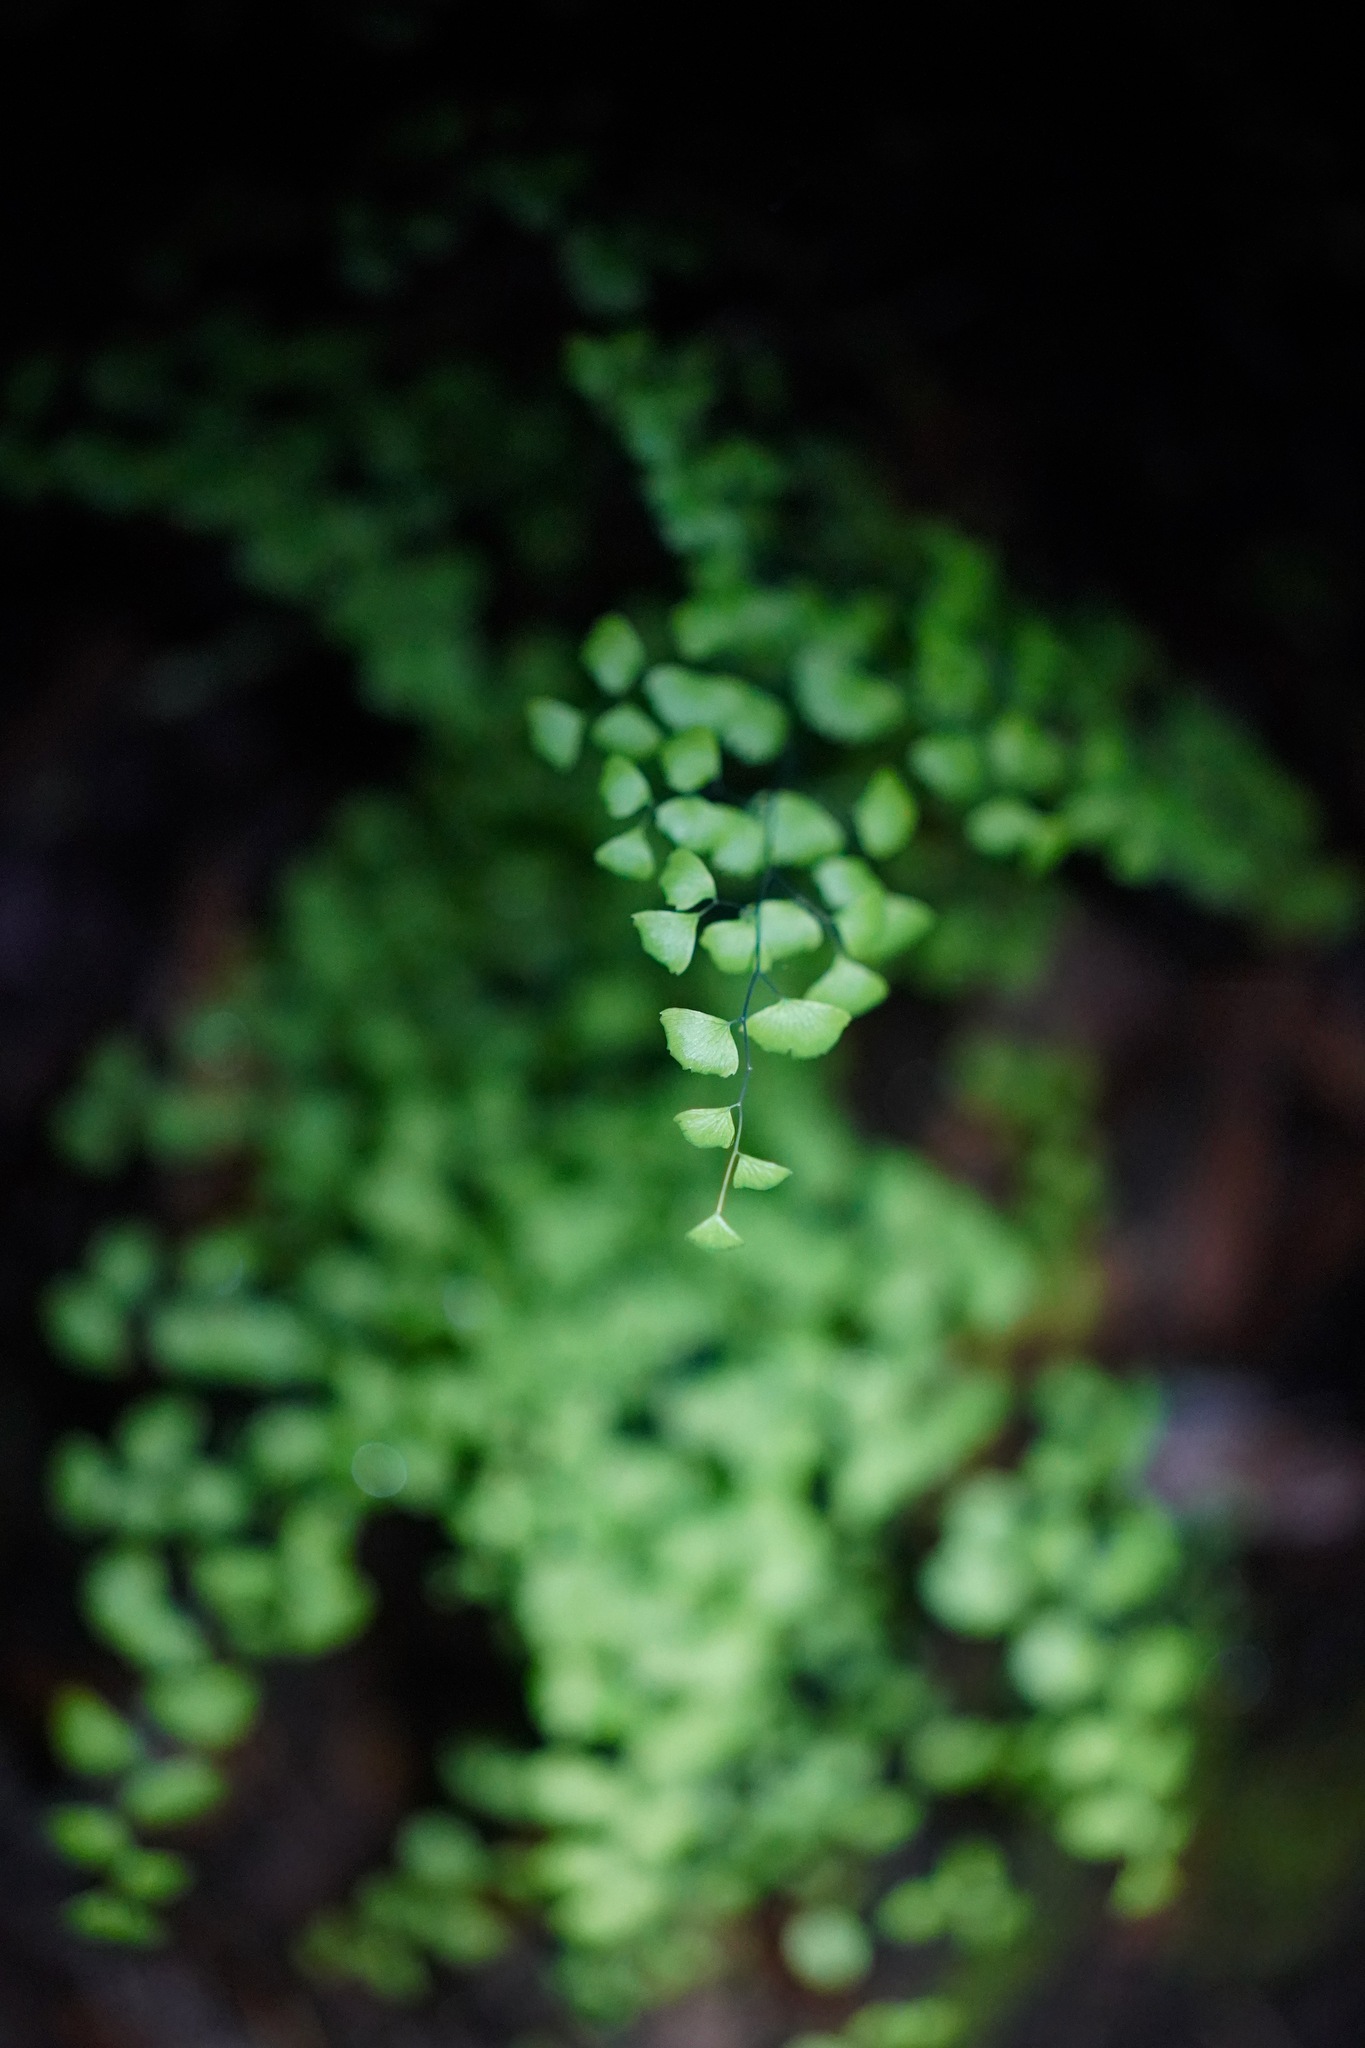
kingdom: Plantae
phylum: Tracheophyta
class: Polypodiopsida
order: Polypodiales
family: Pteridaceae
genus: Adiantum
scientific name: Adiantum jordanii
